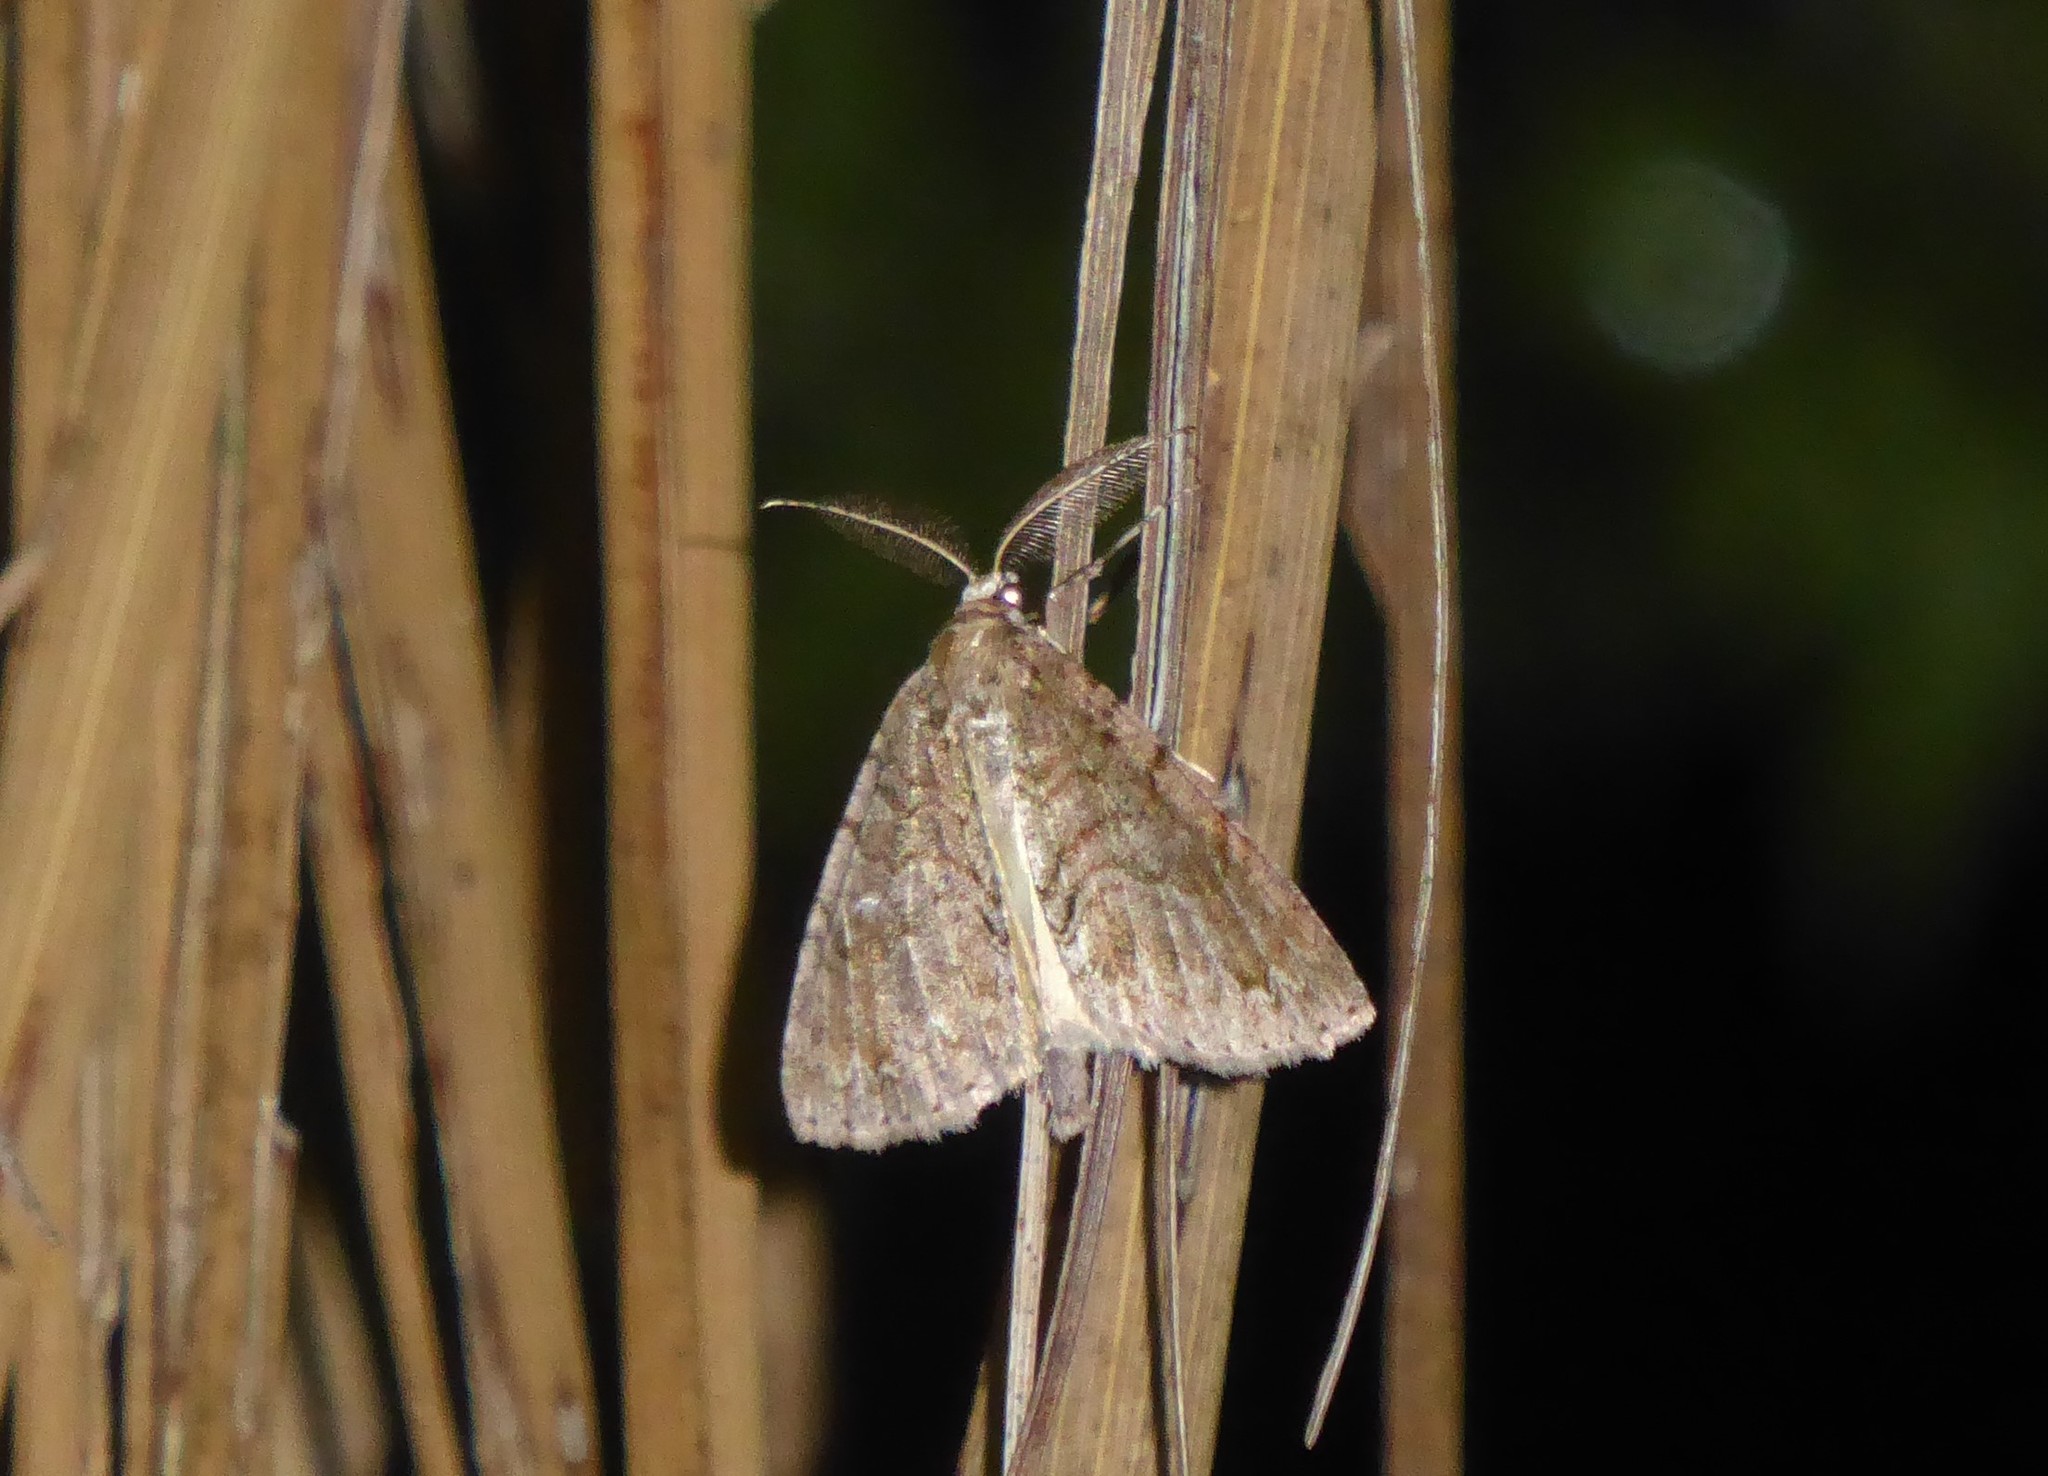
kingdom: Animalia
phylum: Arthropoda
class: Insecta
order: Lepidoptera
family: Geometridae
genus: Pseudocoremia
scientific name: Pseudocoremia suavis
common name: Common forest looper
